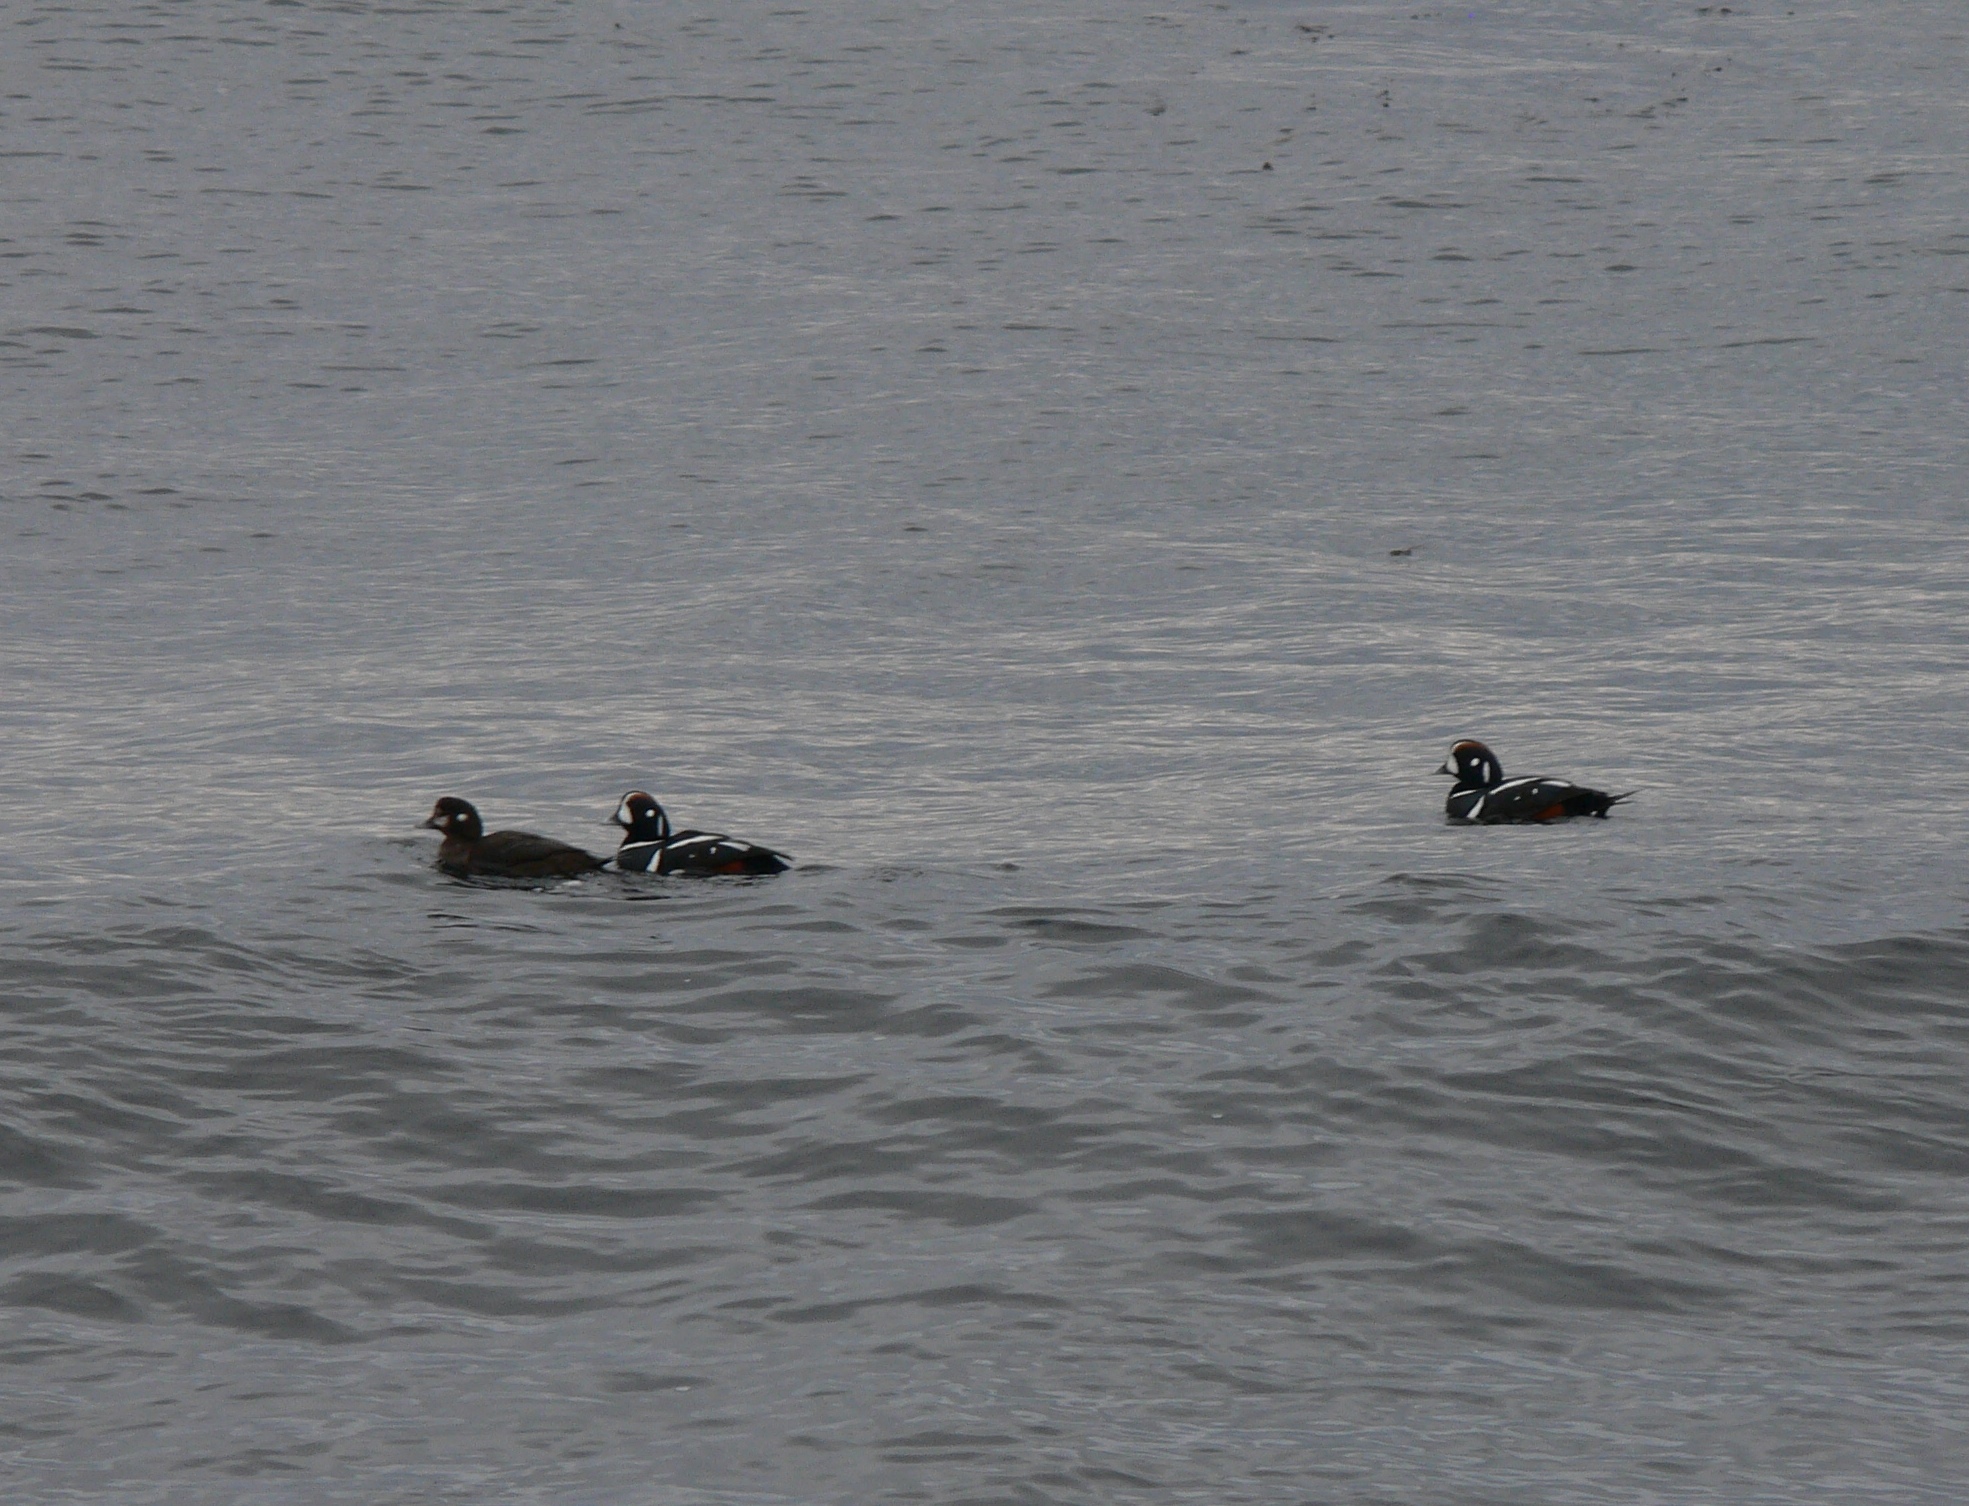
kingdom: Animalia
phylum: Chordata
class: Aves
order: Anseriformes
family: Anatidae
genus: Histrionicus
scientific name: Histrionicus histrionicus
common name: Harlequin duck
